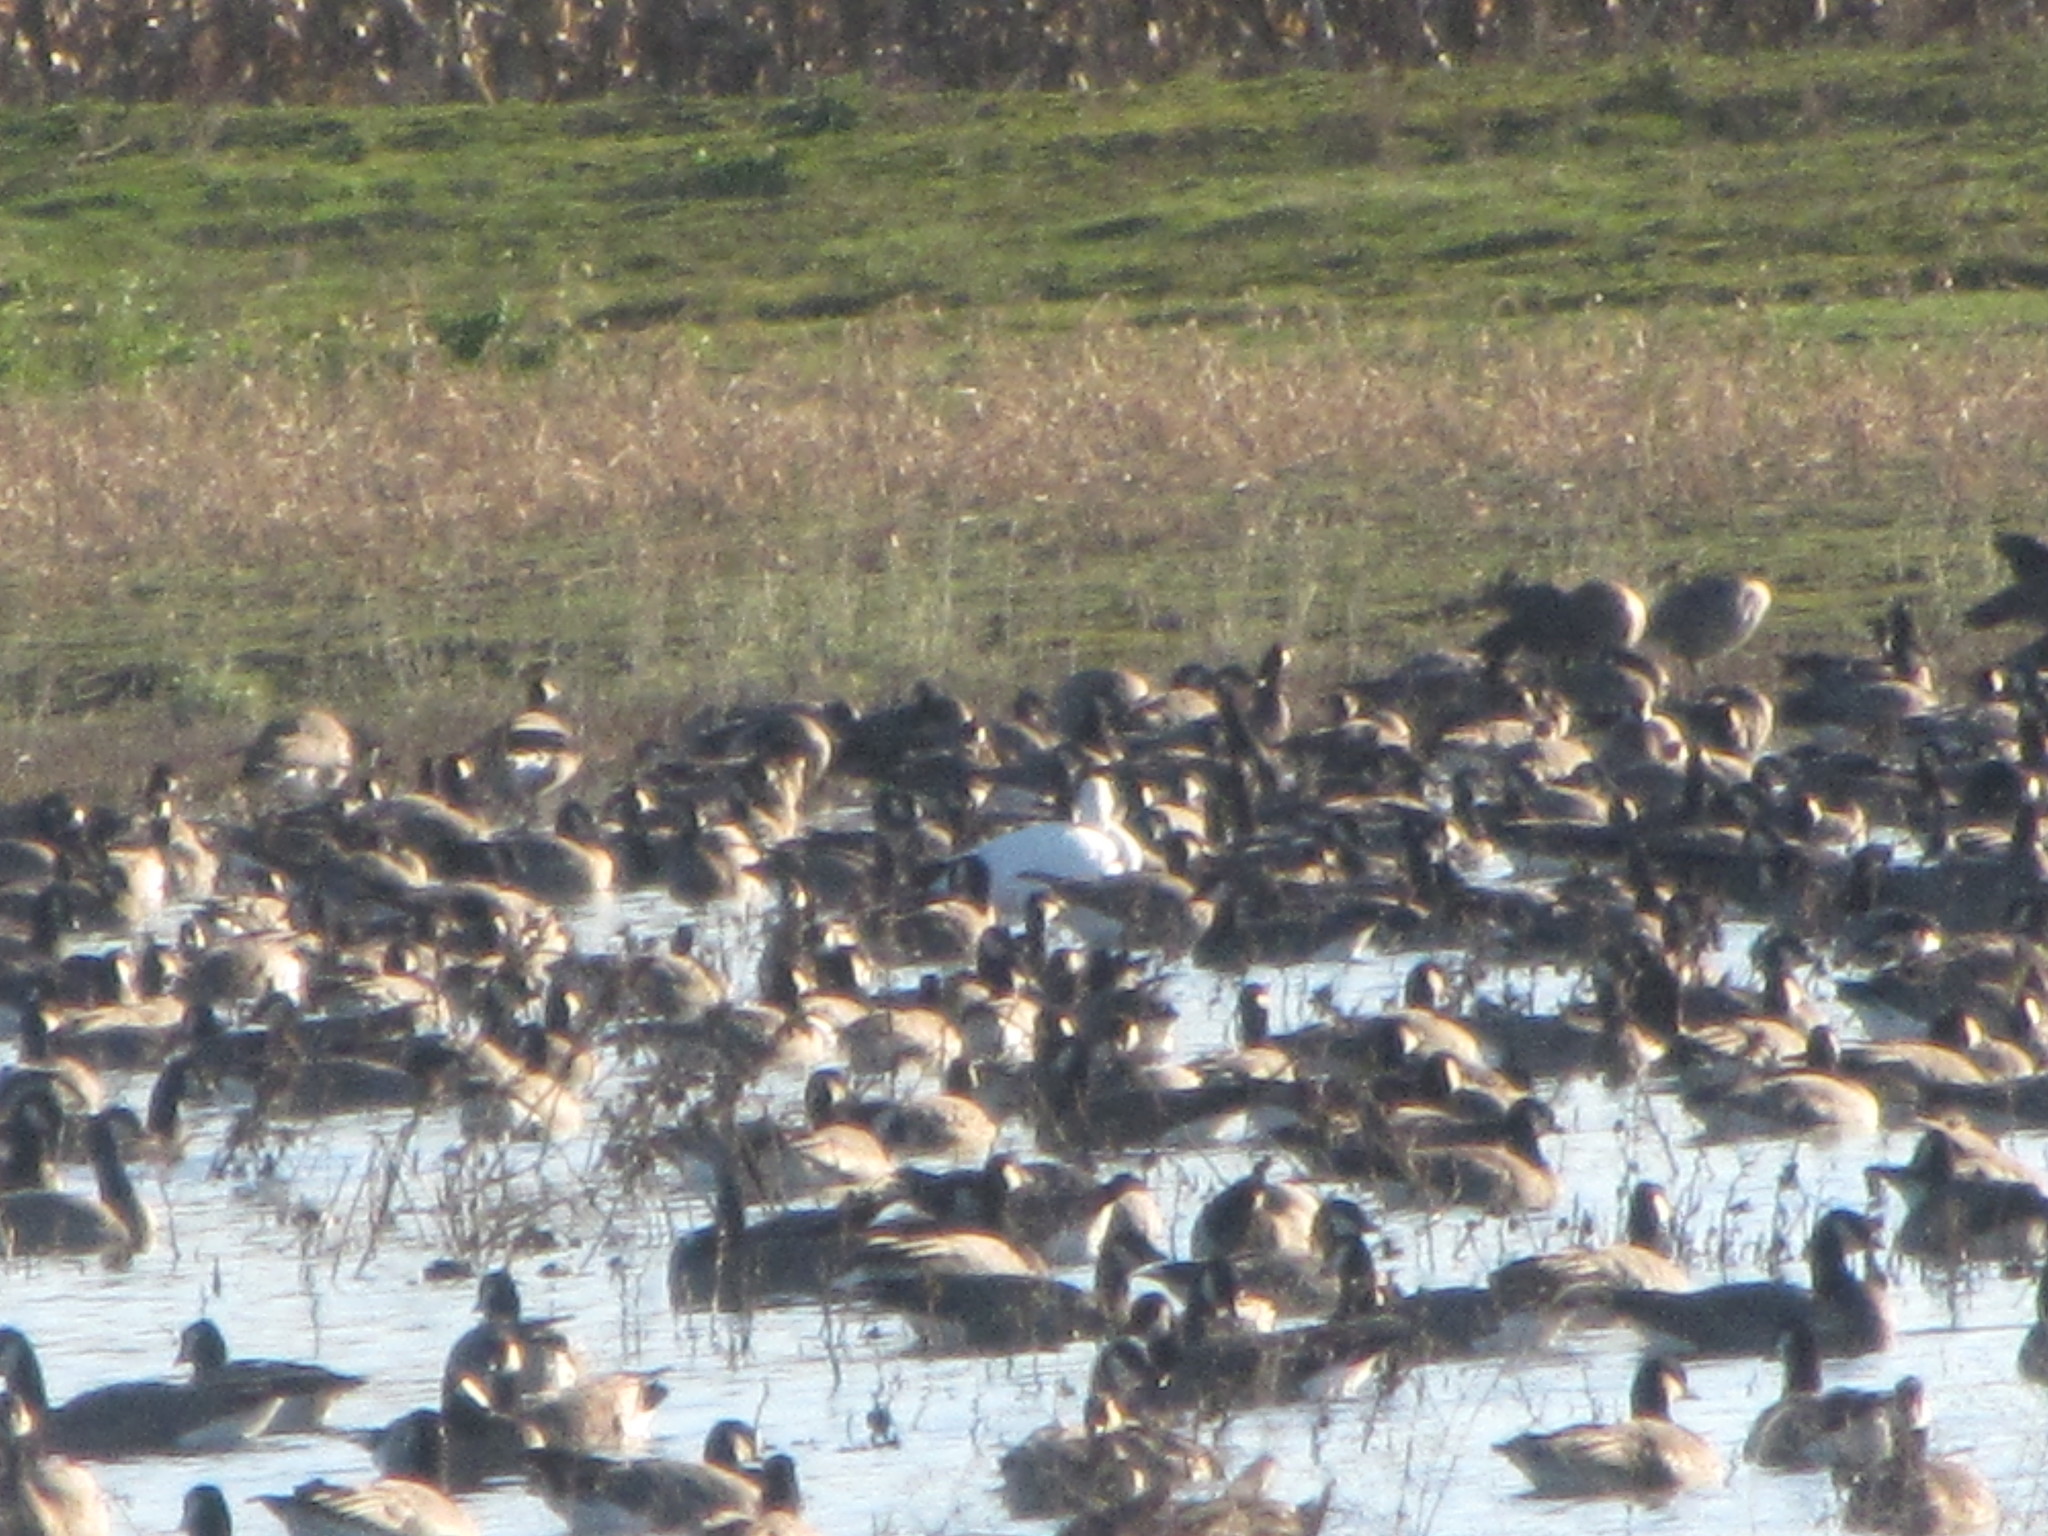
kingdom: Animalia
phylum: Chordata
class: Aves
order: Anseriformes
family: Anatidae
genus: Anser
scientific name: Anser caerulescens
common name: Snow goose
